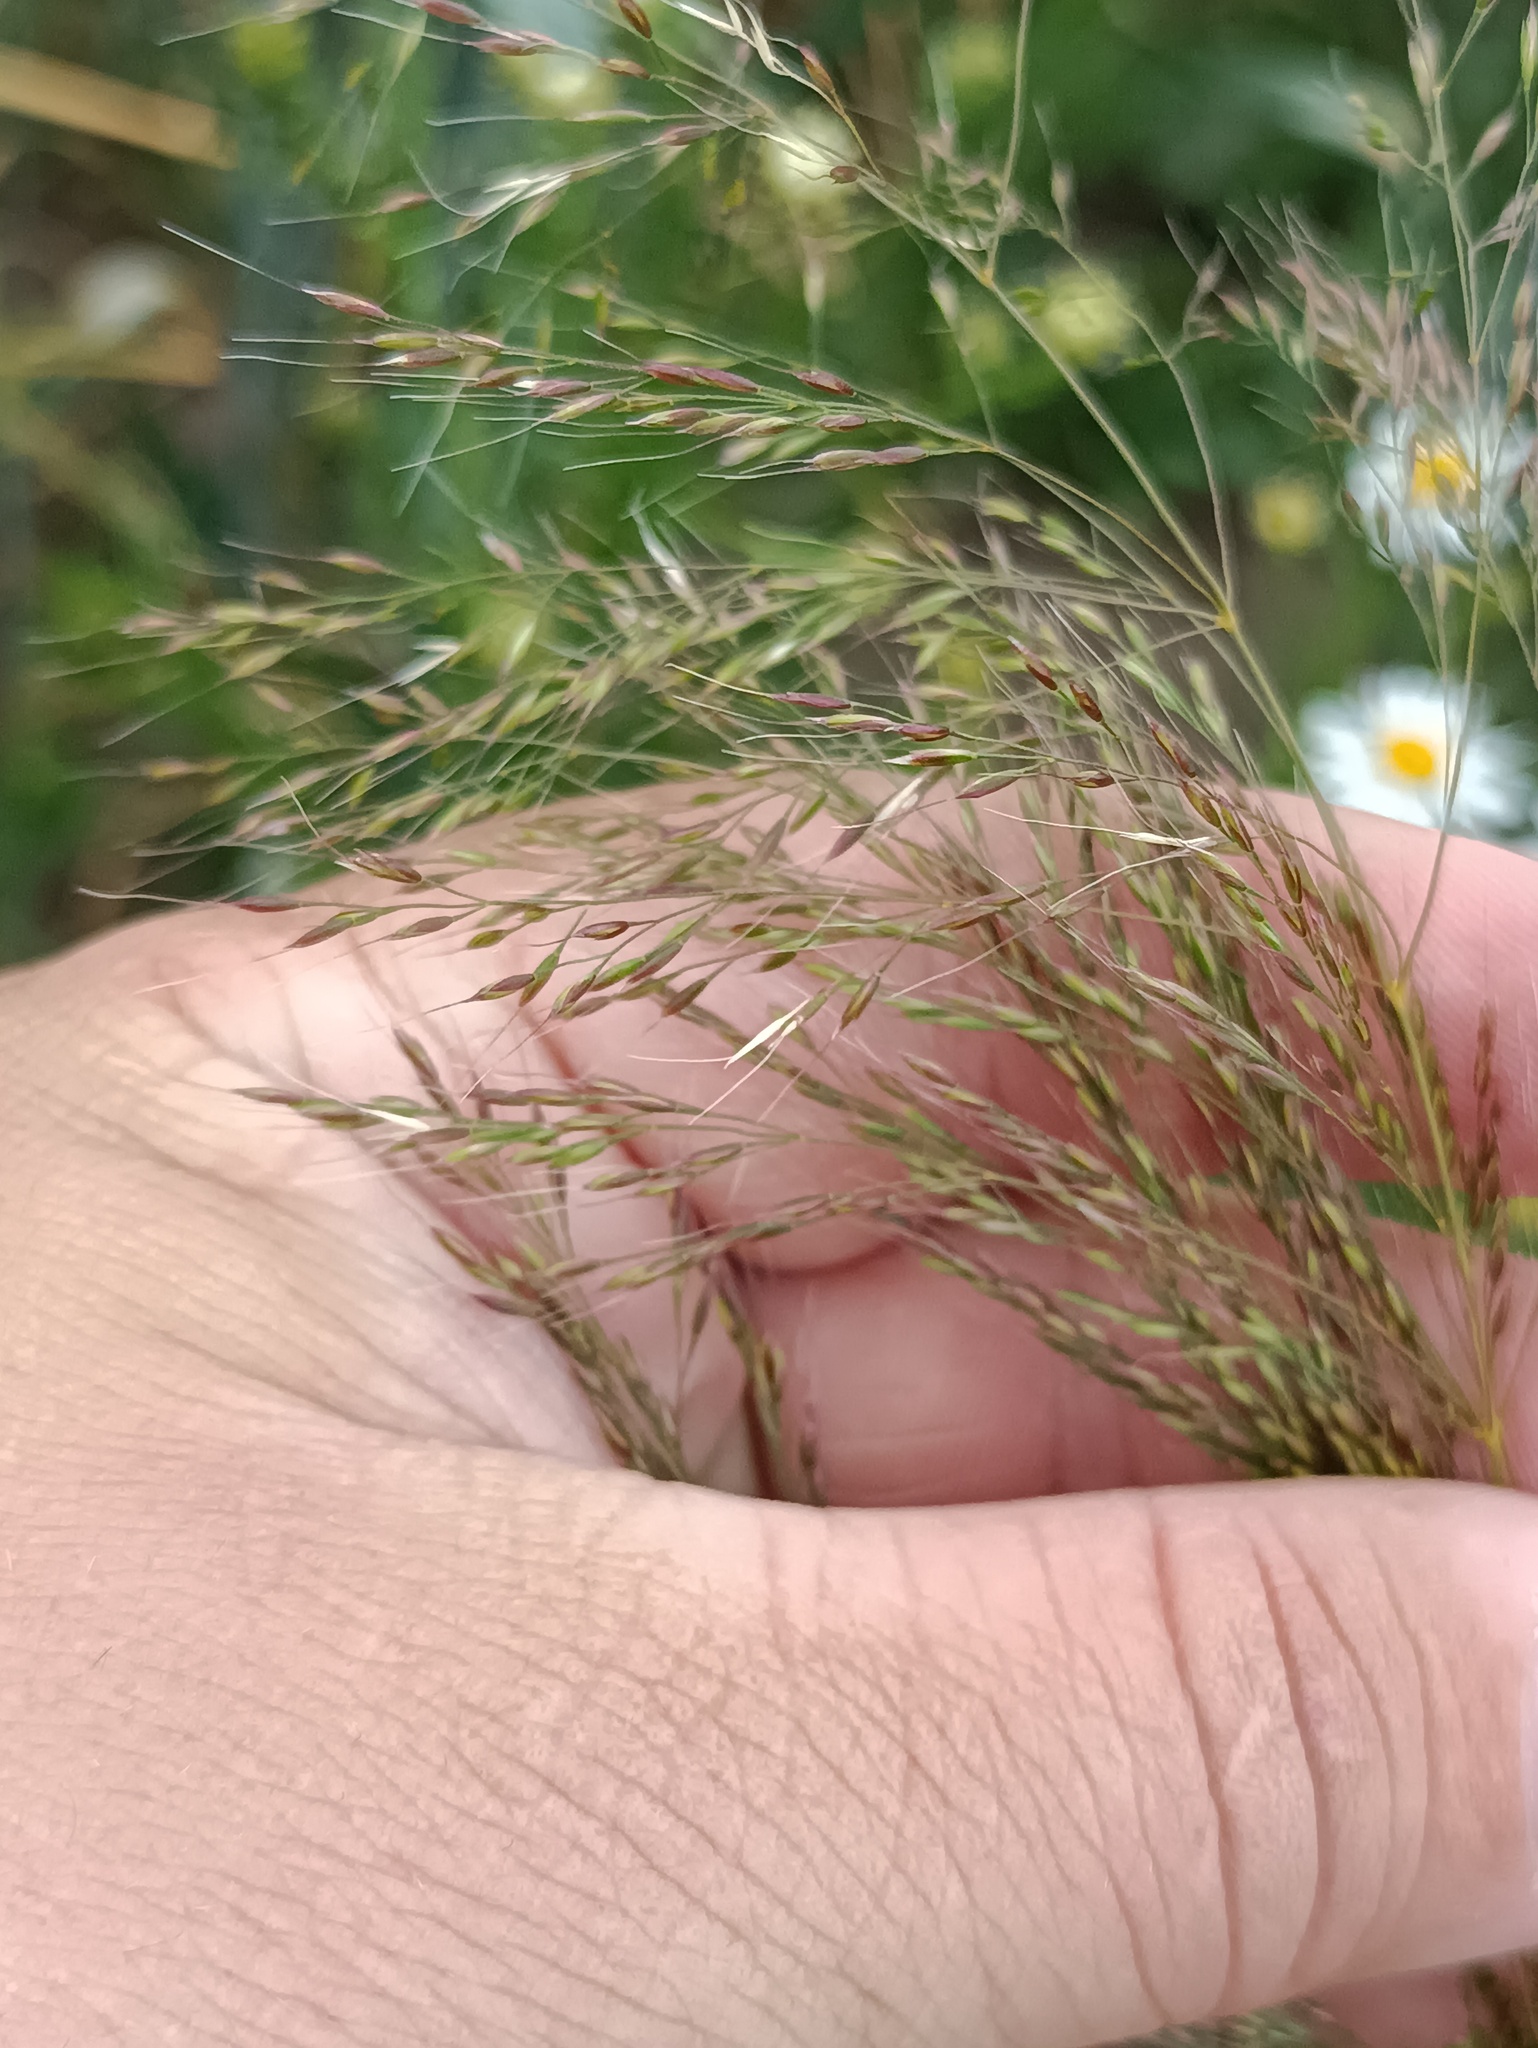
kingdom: Plantae
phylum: Tracheophyta
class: Liliopsida
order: Poales
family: Poaceae
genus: Apera
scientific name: Apera spica-venti
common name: Loose silky-bent
